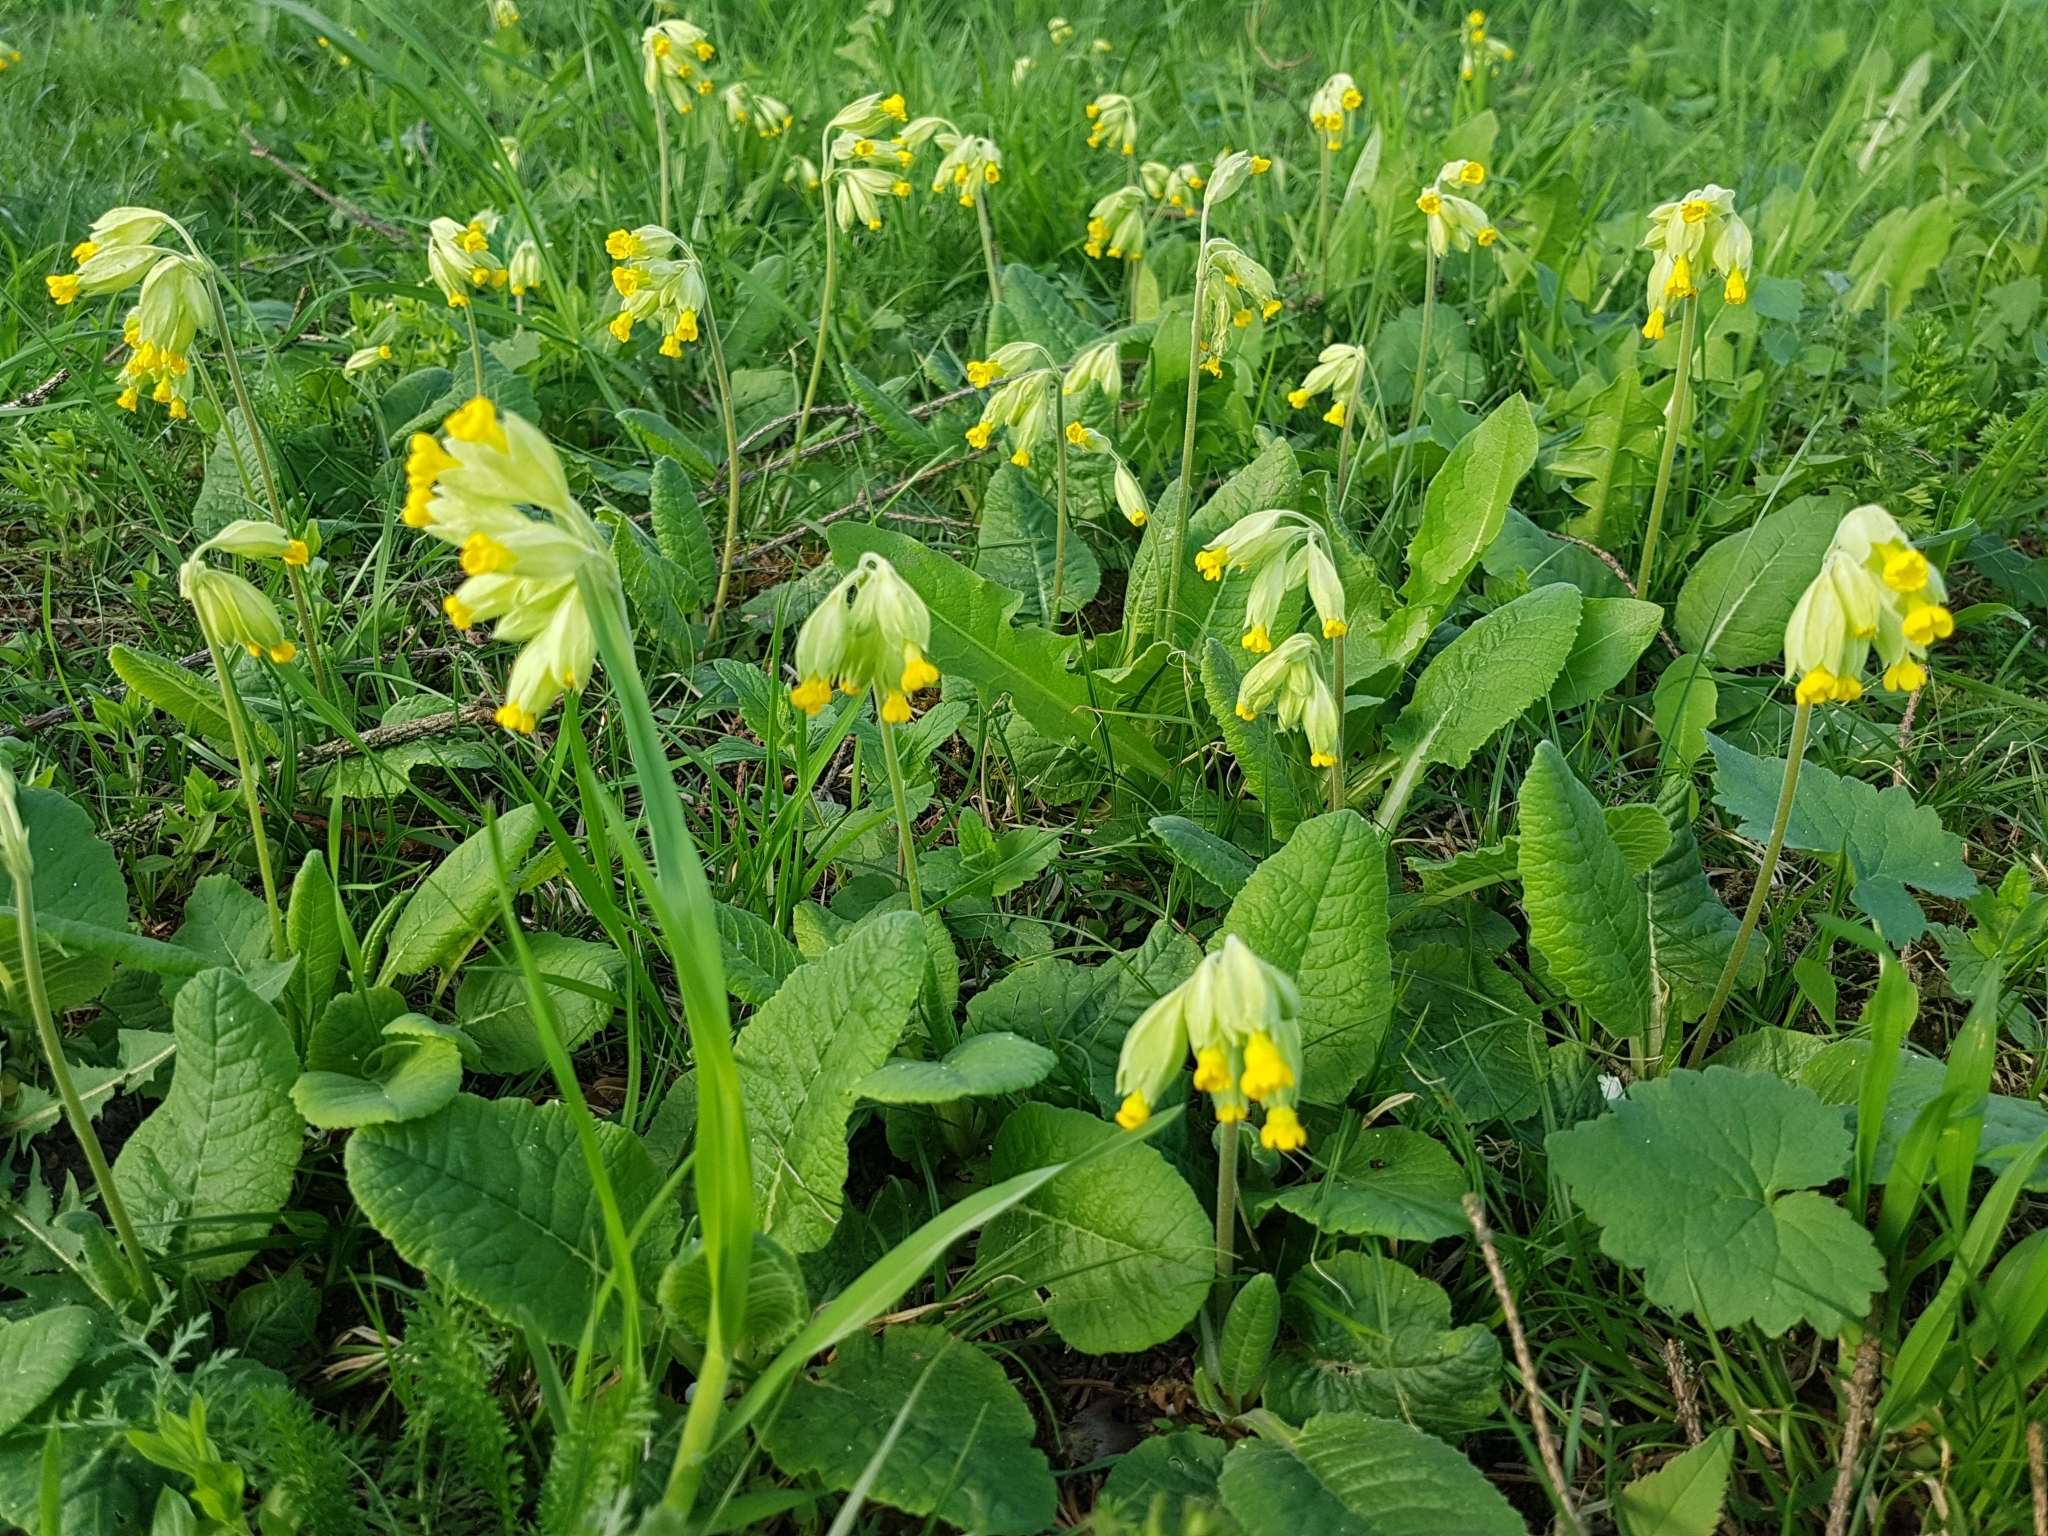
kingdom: Plantae
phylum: Tracheophyta
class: Magnoliopsida
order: Ericales
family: Primulaceae
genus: Primula
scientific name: Primula veris
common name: Cowslip
